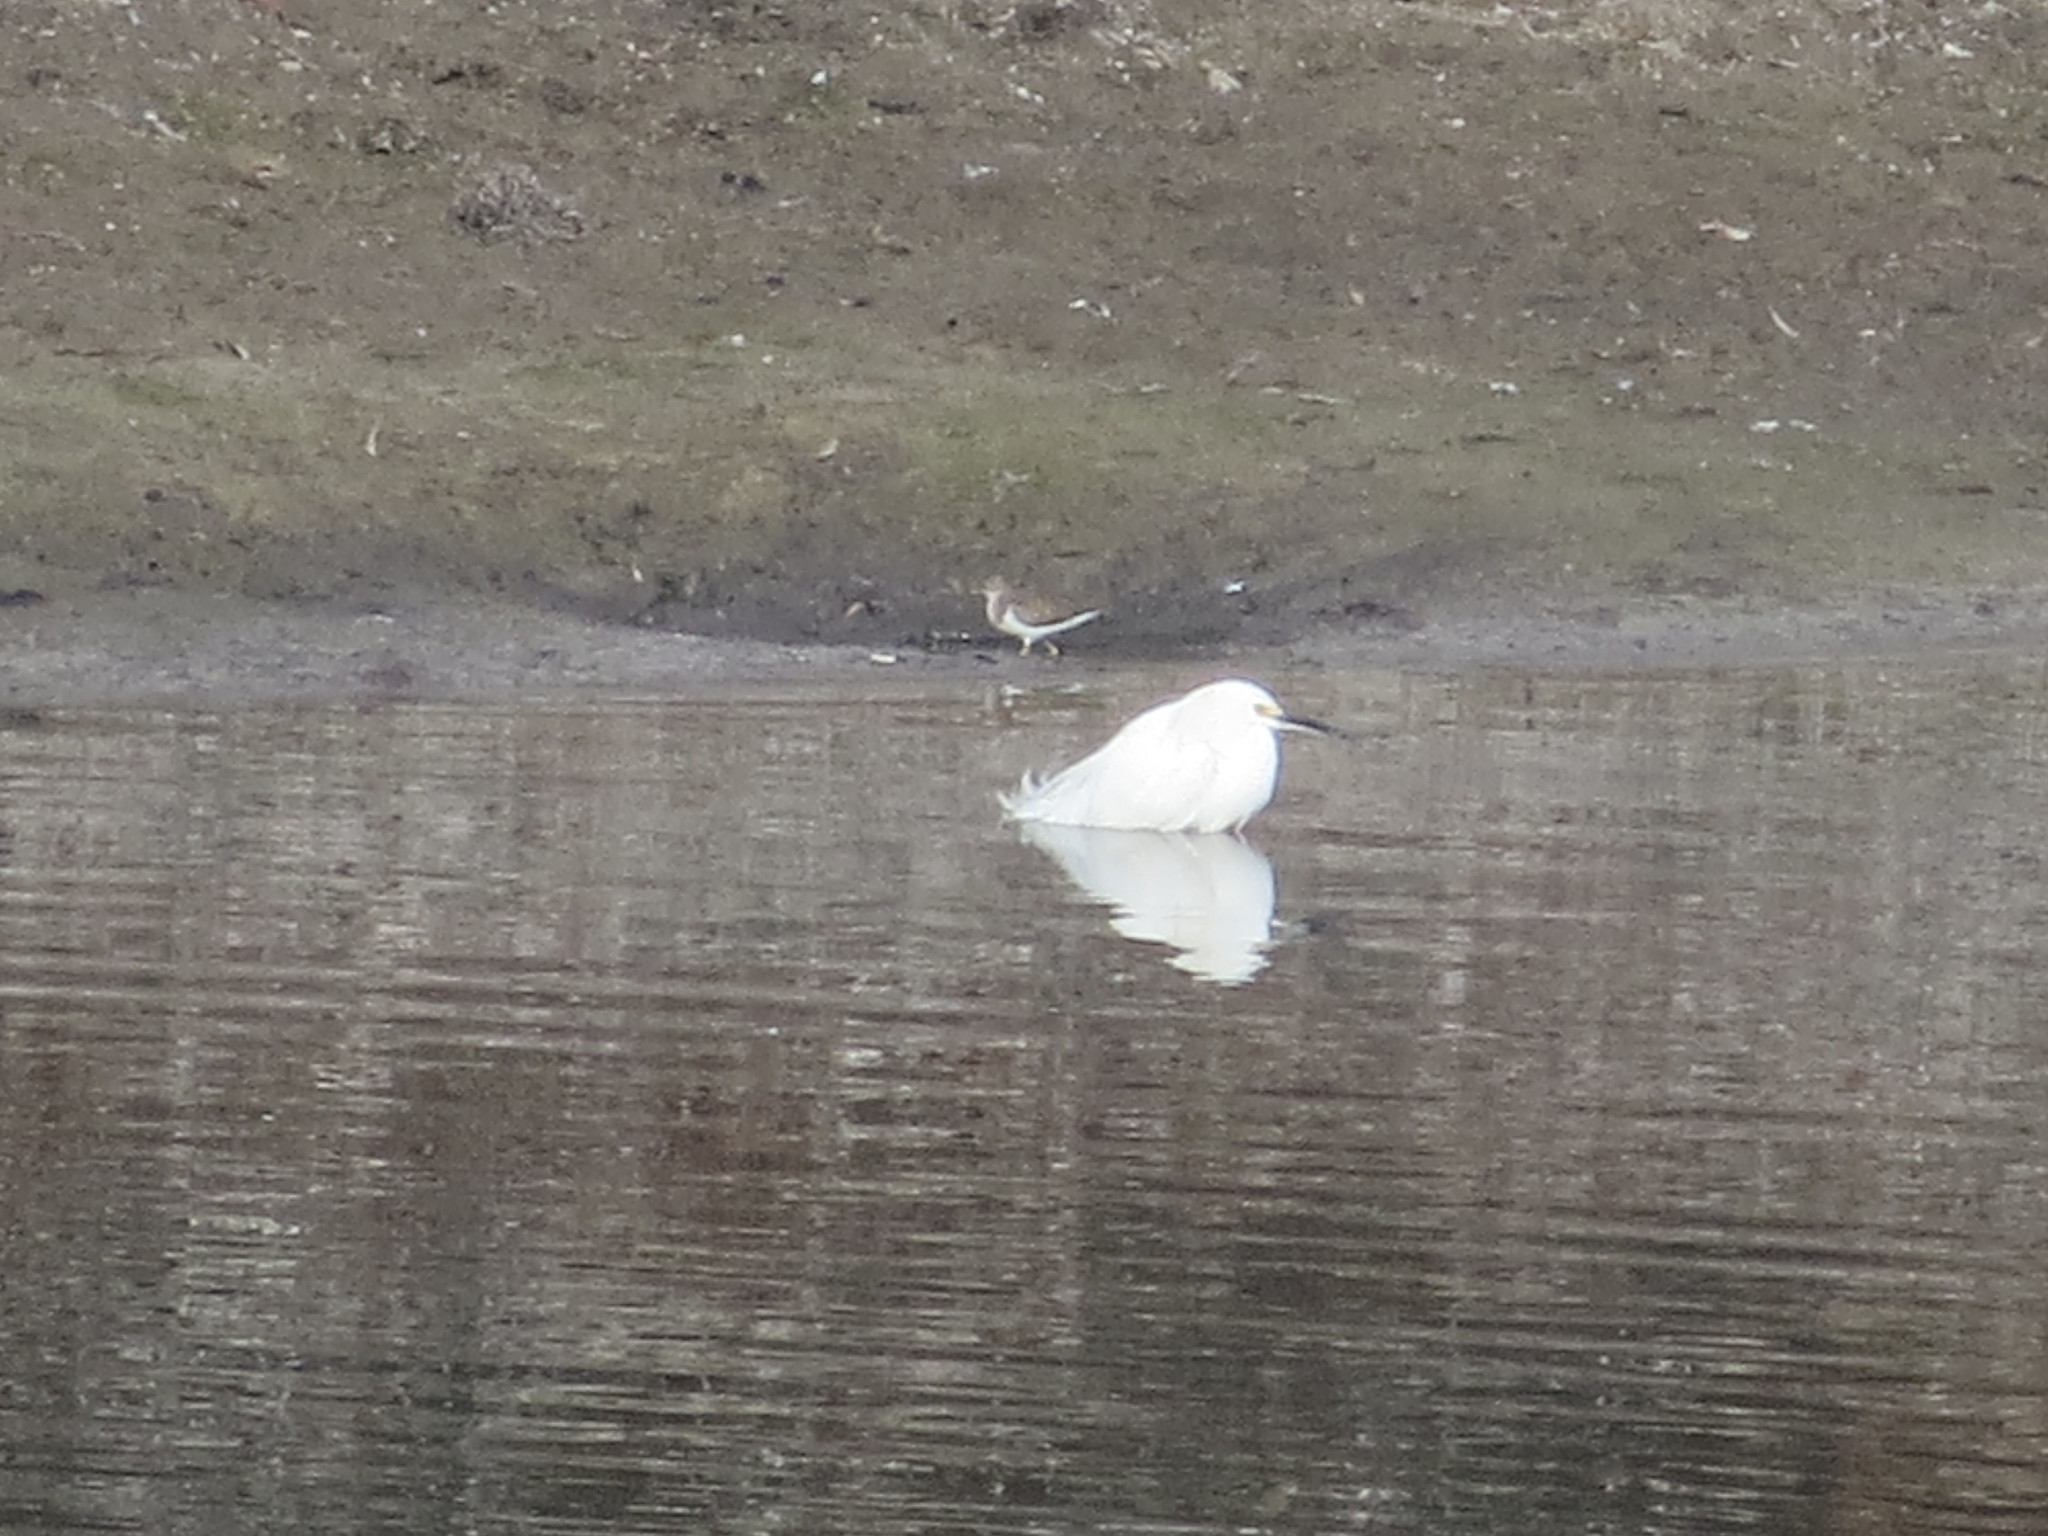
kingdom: Animalia
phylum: Chordata
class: Aves
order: Pelecaniformes
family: Ardeidae
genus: Egretta
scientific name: Egretta thula
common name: Snowy egret
